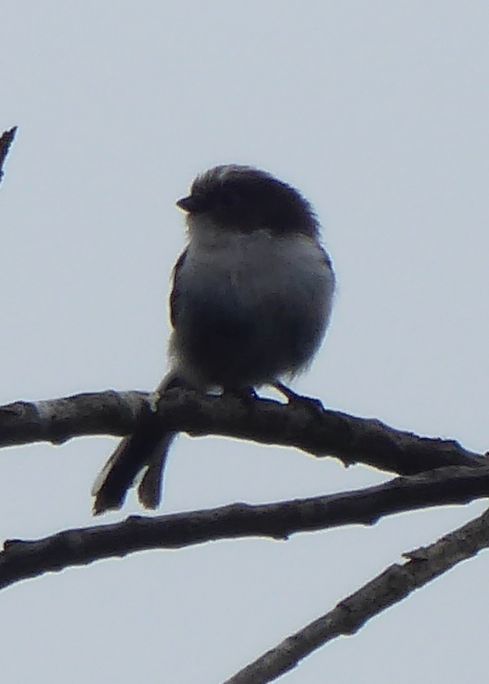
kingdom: Animalia
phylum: Chordata
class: Aves
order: Passeriformes
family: Aegithalidae
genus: Aegithalos
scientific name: Aegithalos caudatus
